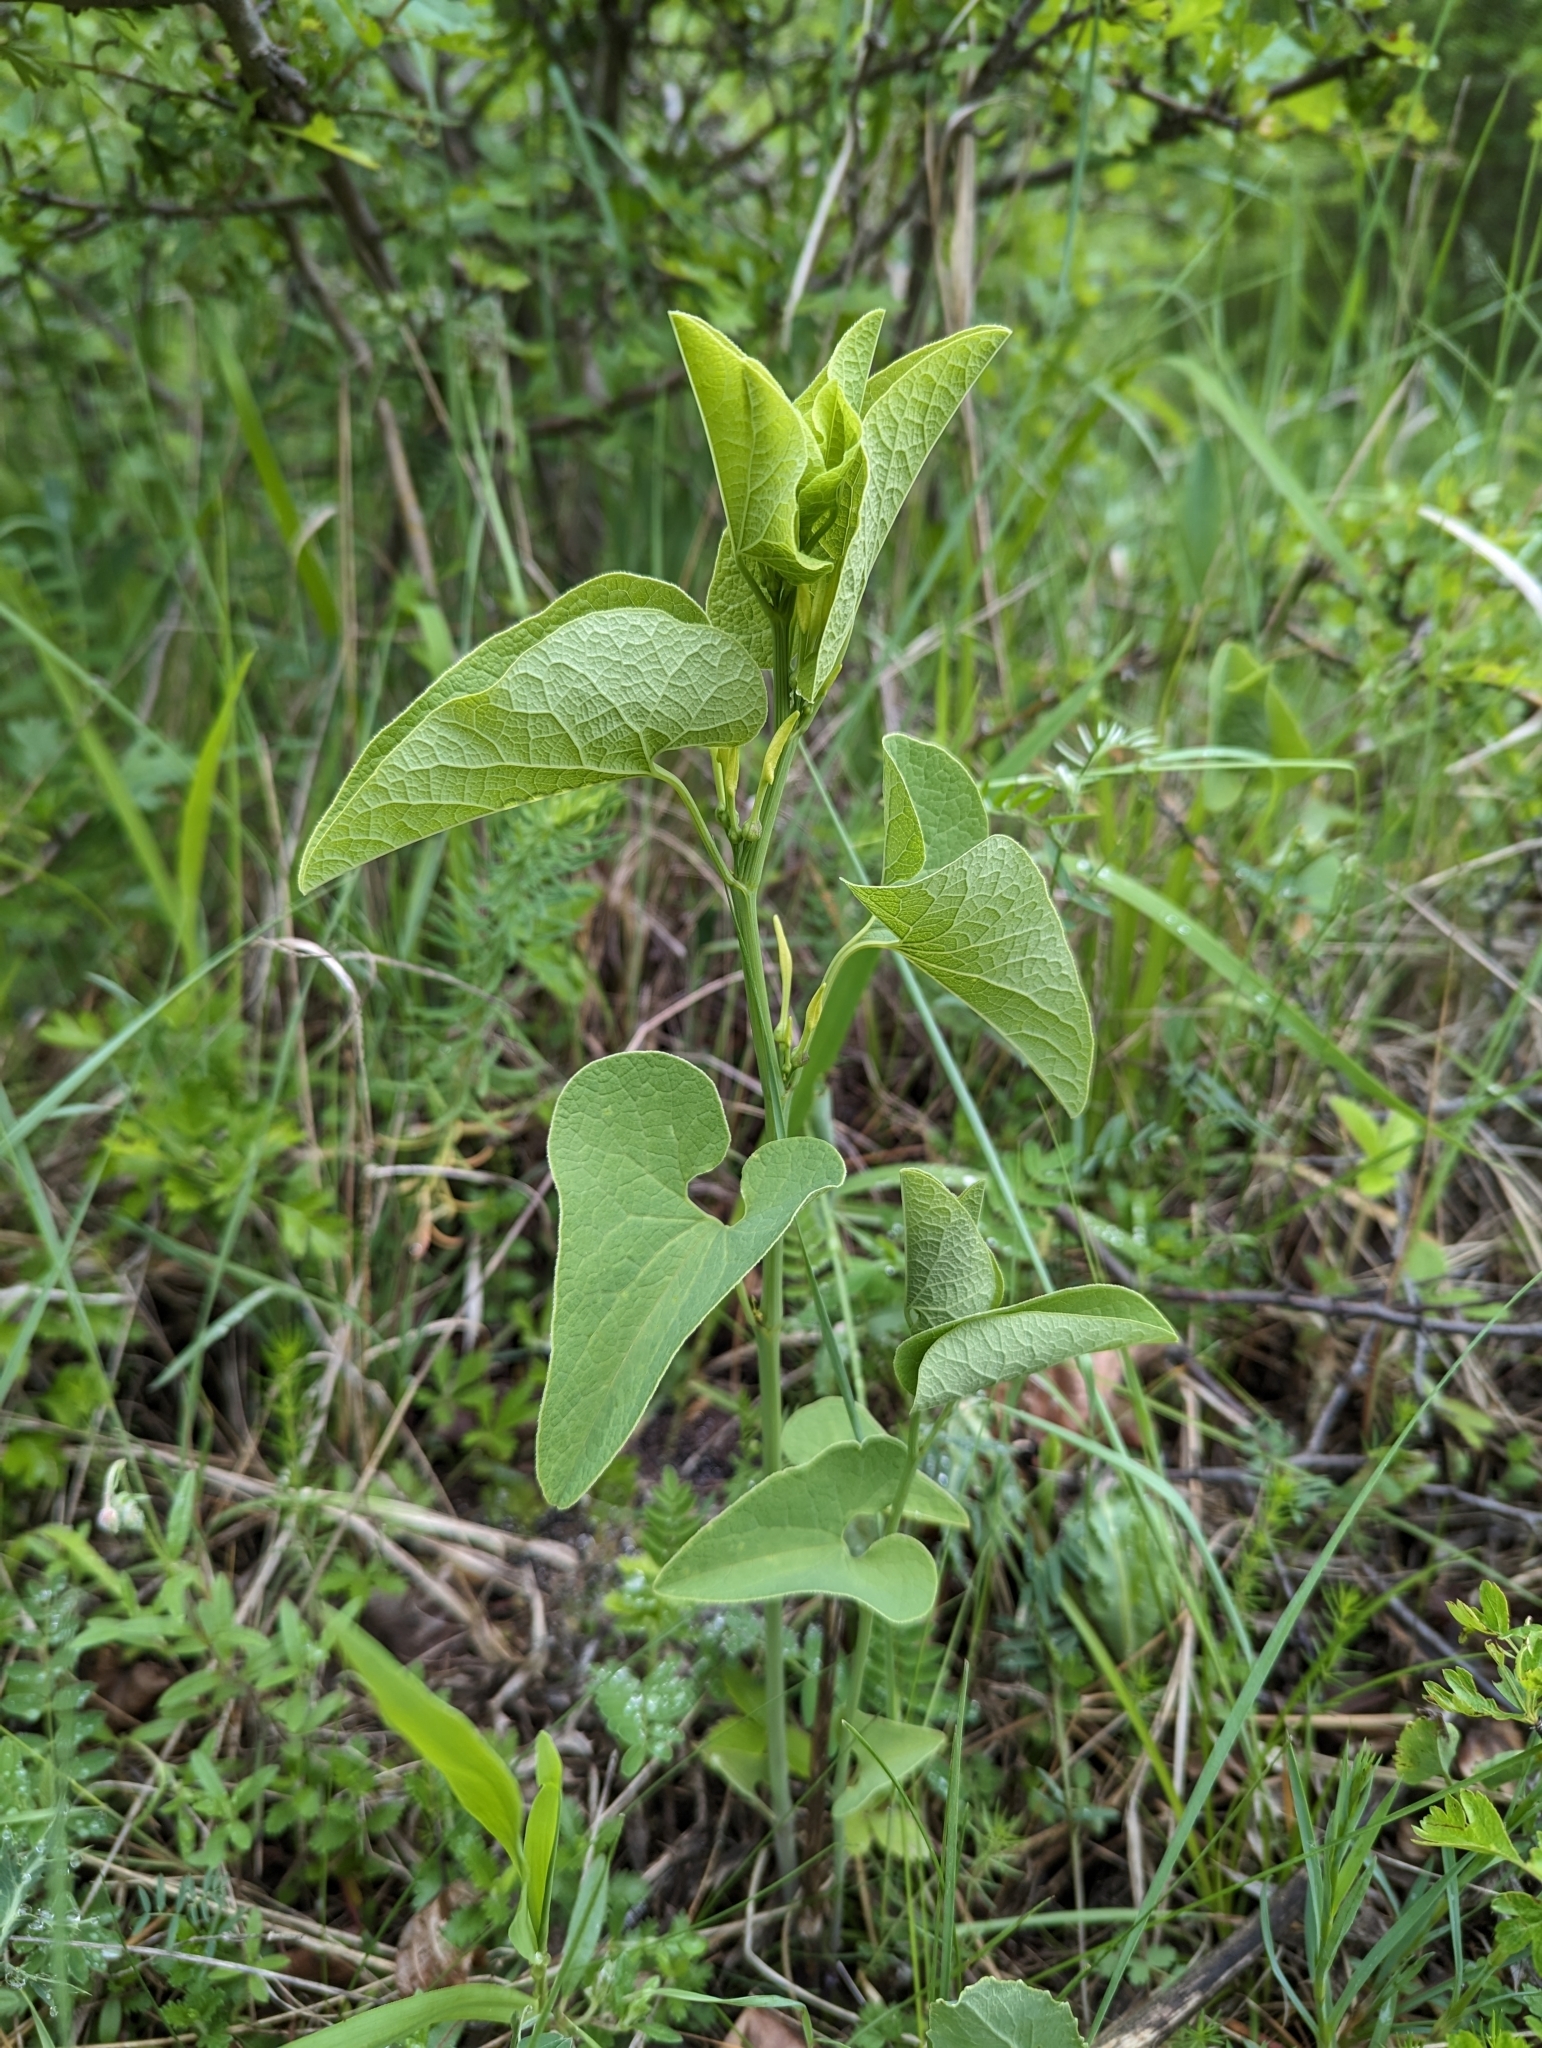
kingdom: Plantae
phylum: Tracheophyta
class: Magnoliopsida
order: Piperales
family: Aristolochiaceae
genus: Aristolochia
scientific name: Aristolochia clematitis
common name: Birthwort
